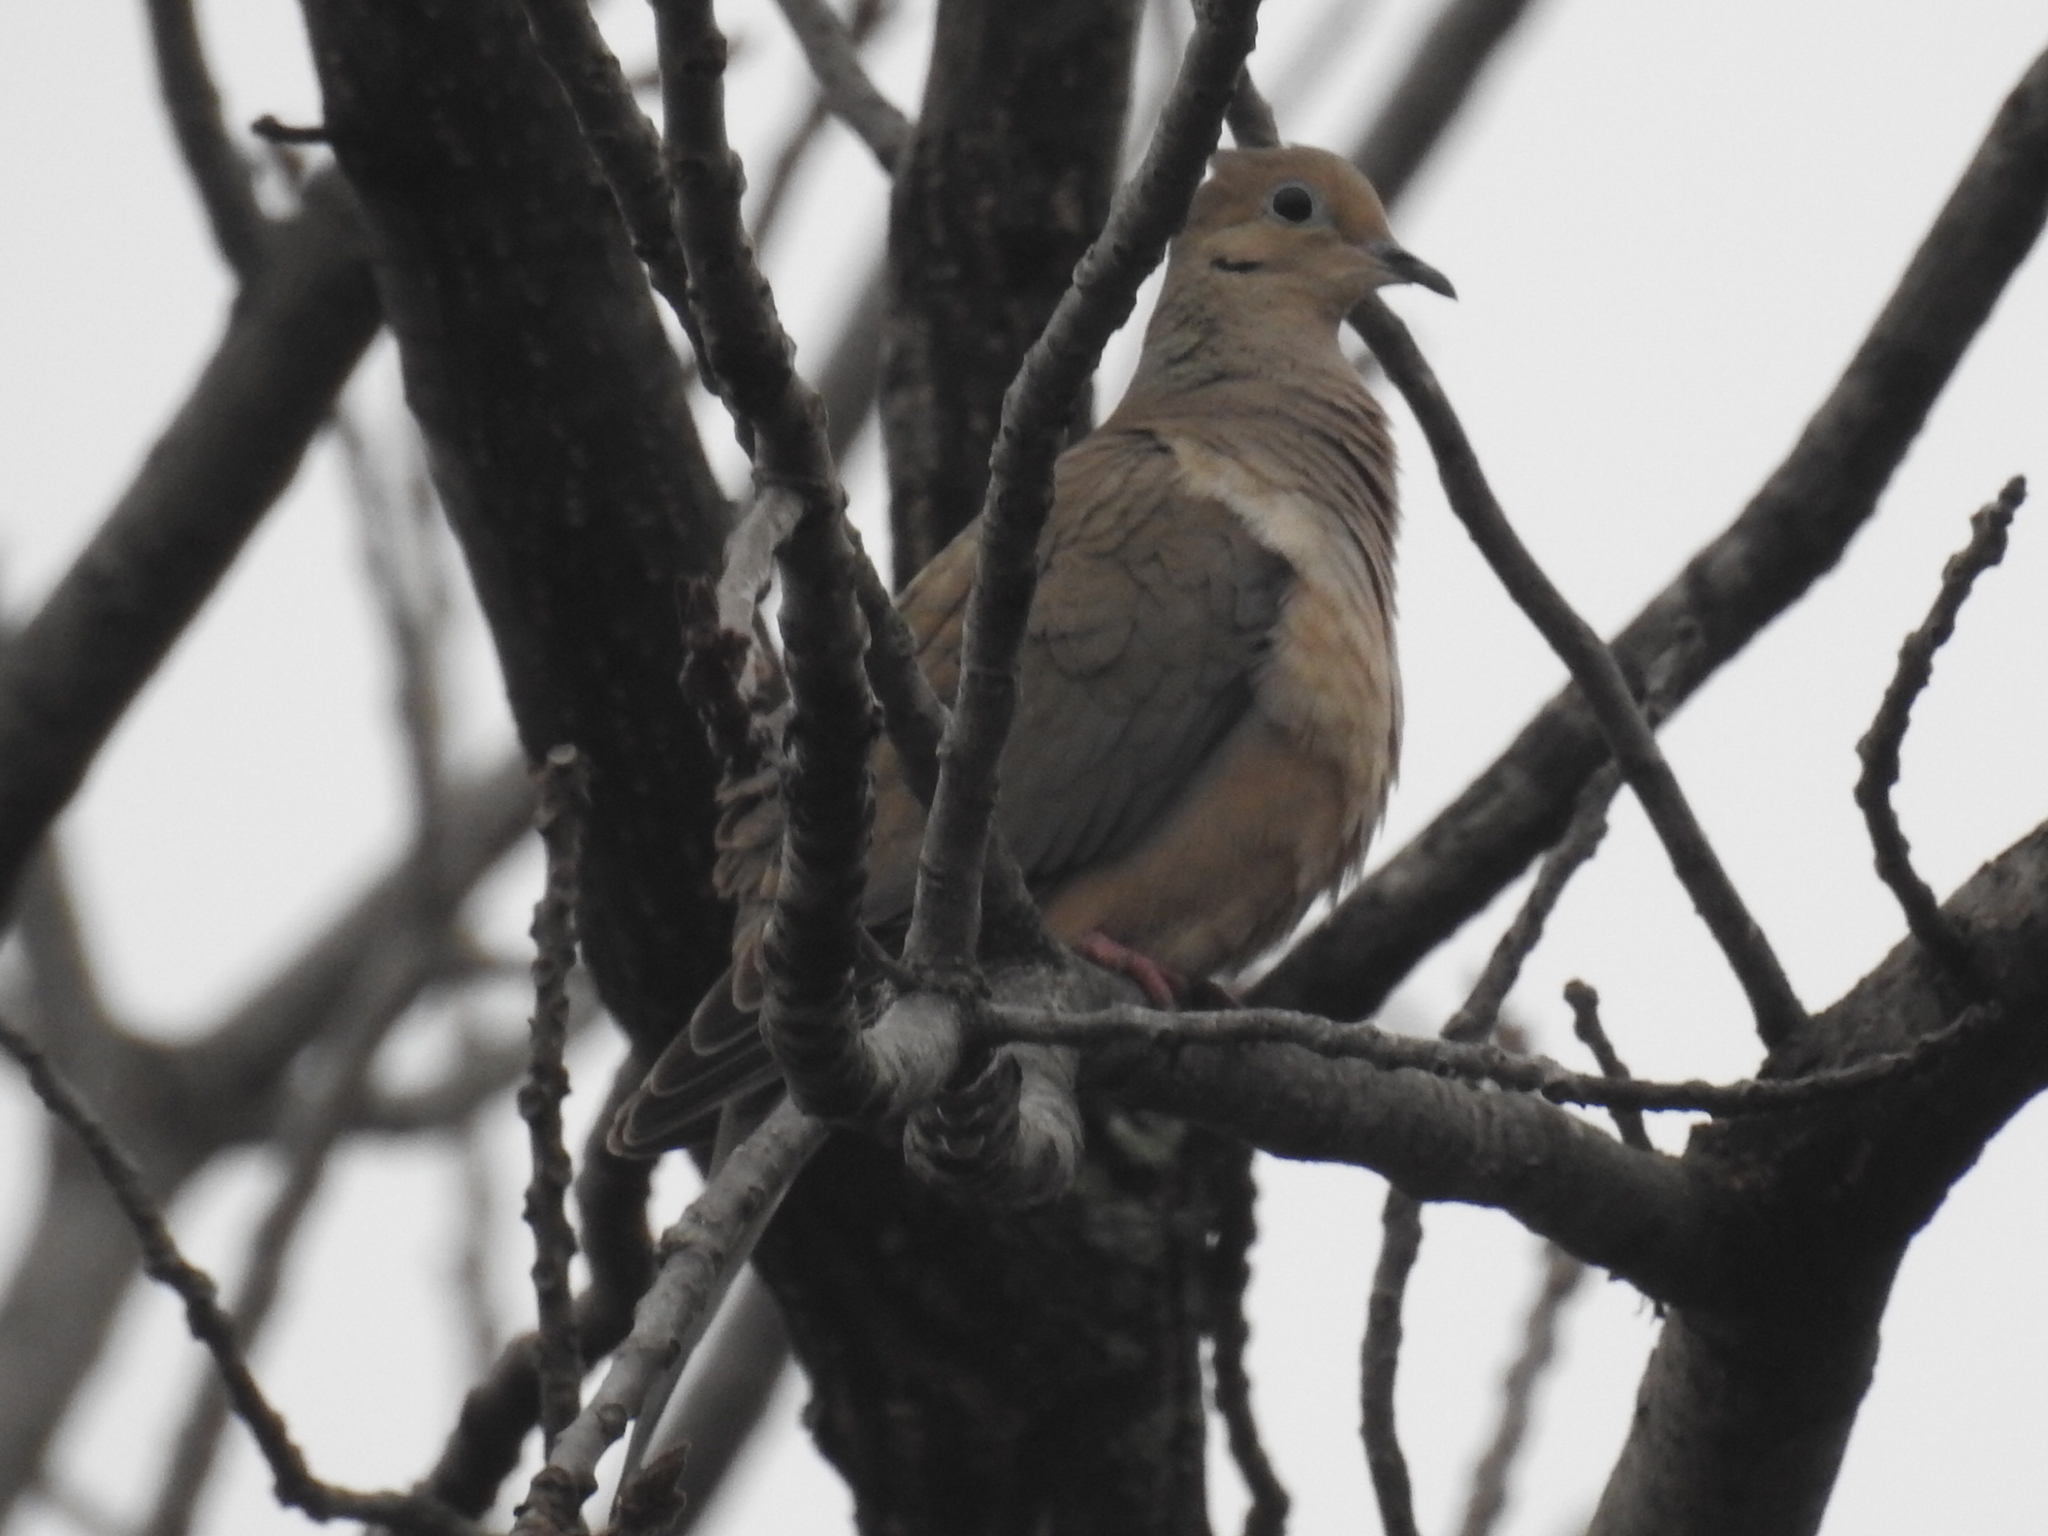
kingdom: Animalia
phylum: Chordata
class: Aves
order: Columbiformes
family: Columbidae
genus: Zenaida
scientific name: Zenaida macroura
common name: Mourning dove
